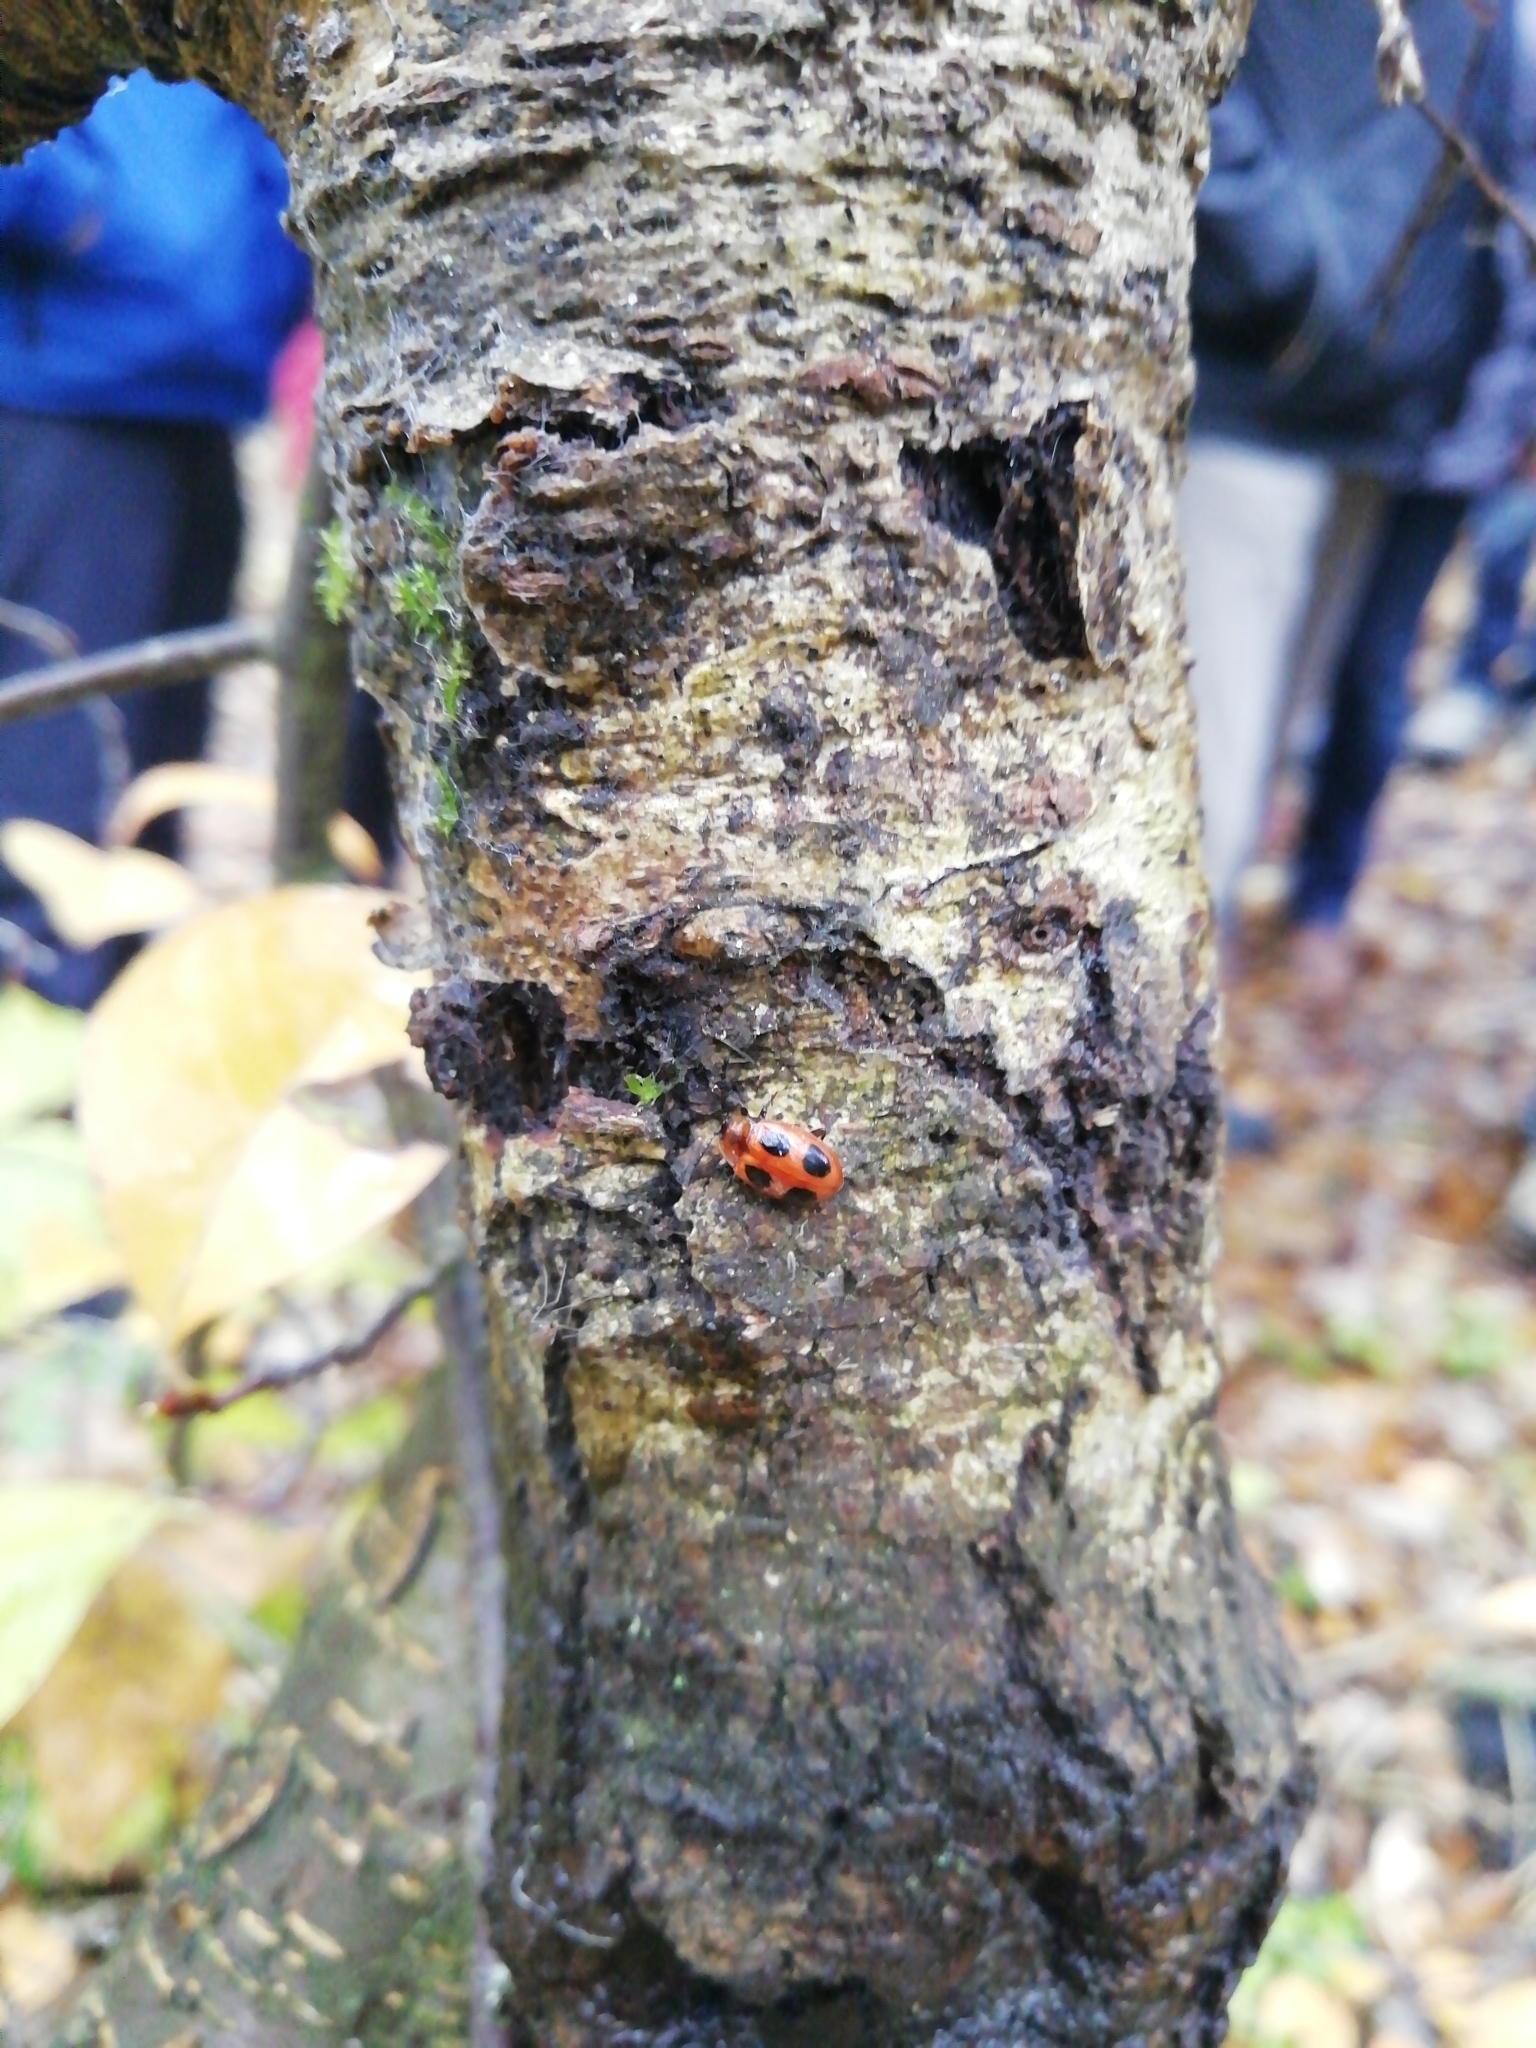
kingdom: Animalia
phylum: Arthropoda
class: Insecta
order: Coleoptera
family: Endomychidae
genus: Endomychus
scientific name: Endomychus coccineus
